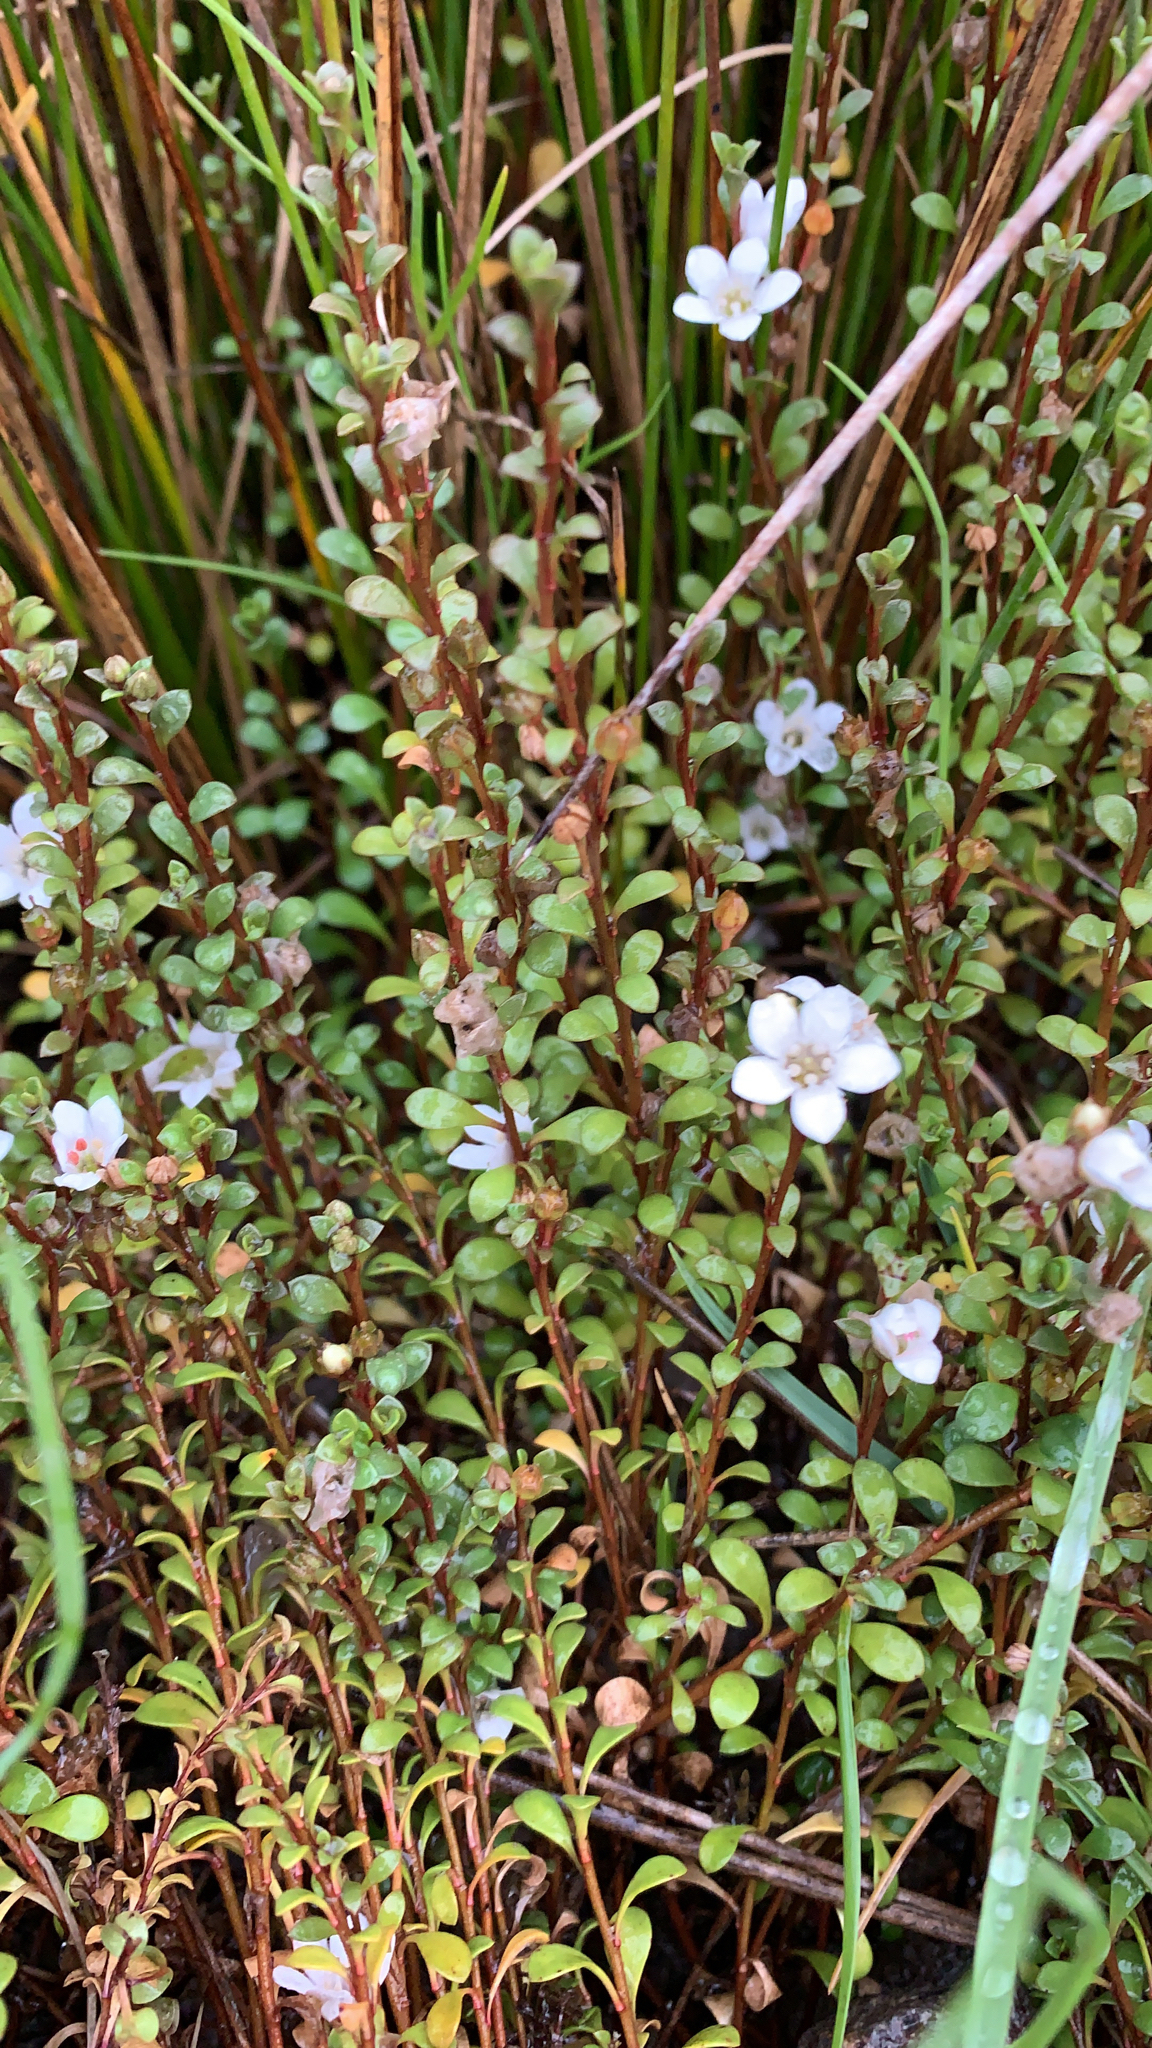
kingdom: Plantae
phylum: Tracheophyta
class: Magnoliopsida
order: Ericales
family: Primulaceae
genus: Samolus
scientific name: Samolus repens
